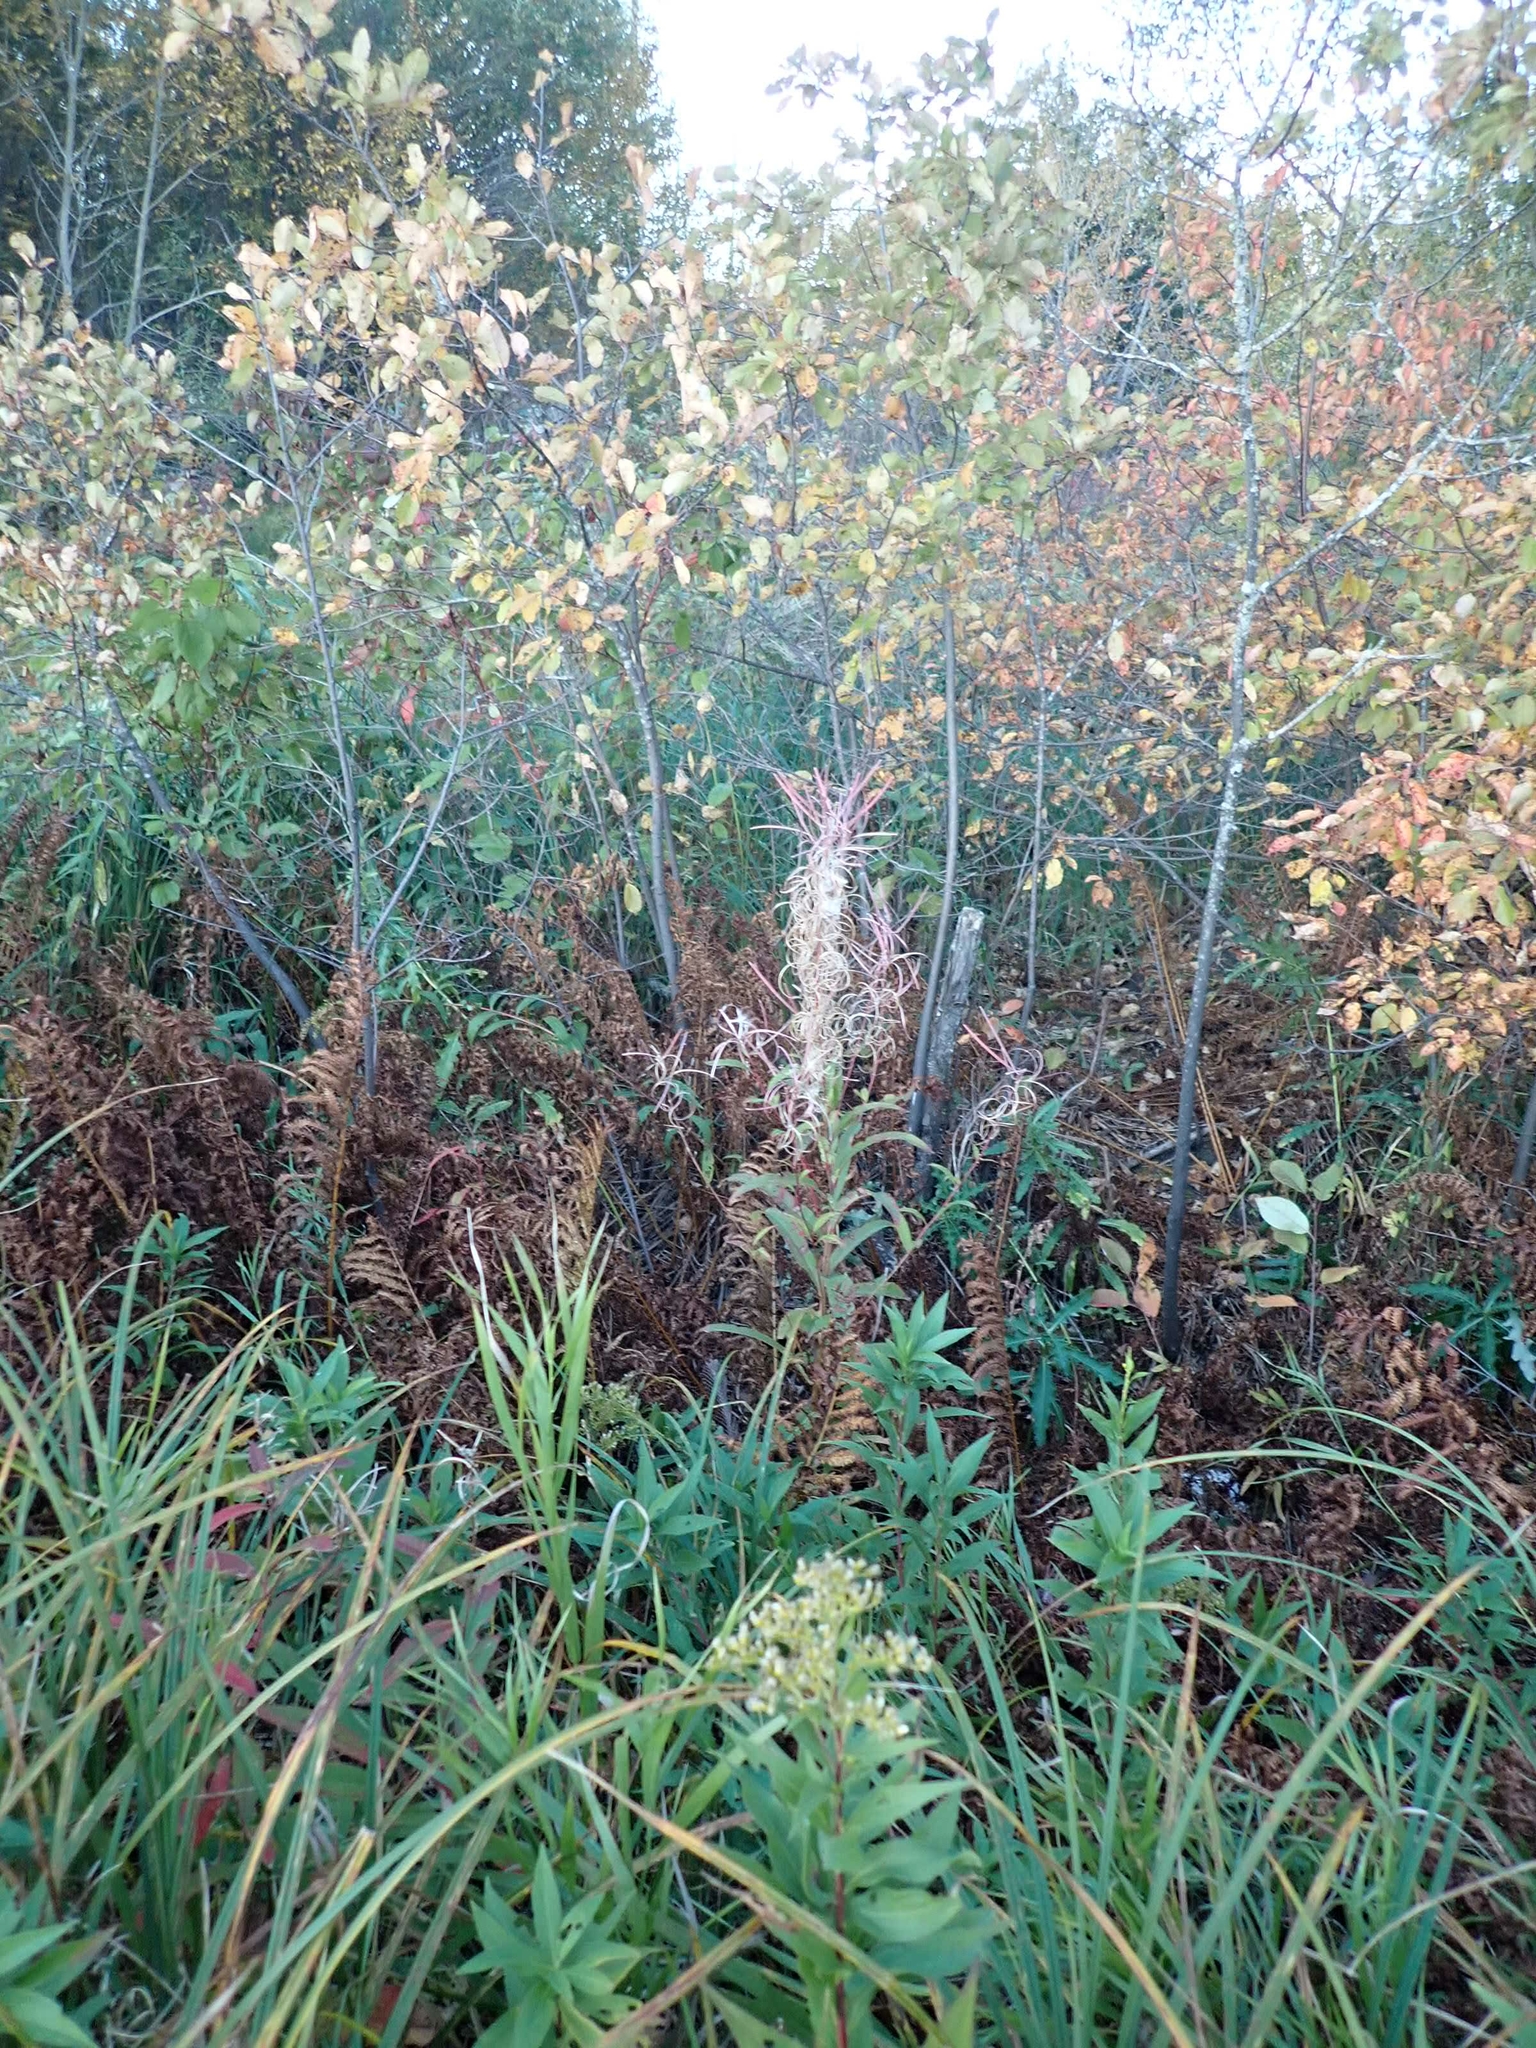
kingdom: Plantae
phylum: Tracheophyta
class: Magnoliopsida
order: Myrtales
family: Onagraceae
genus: Chamaenerion
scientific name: Chamaenerion angustifolium
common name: Fireweed
